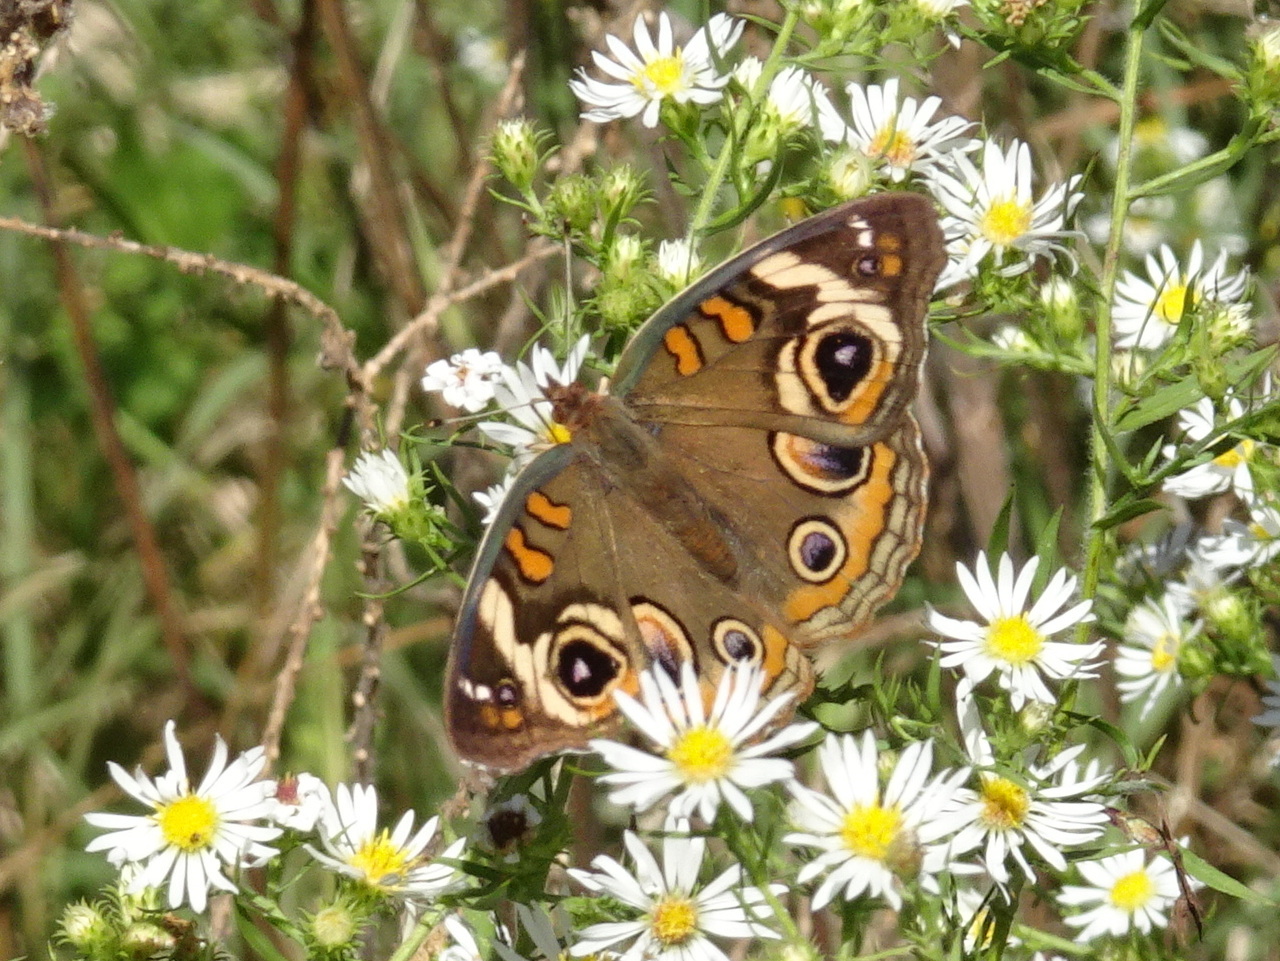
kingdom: Animalia
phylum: Arthropoda
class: Insecta
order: Lepidoptera
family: Nymphalidae
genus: Junonia
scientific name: Junonia coenia
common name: Common buckeye
